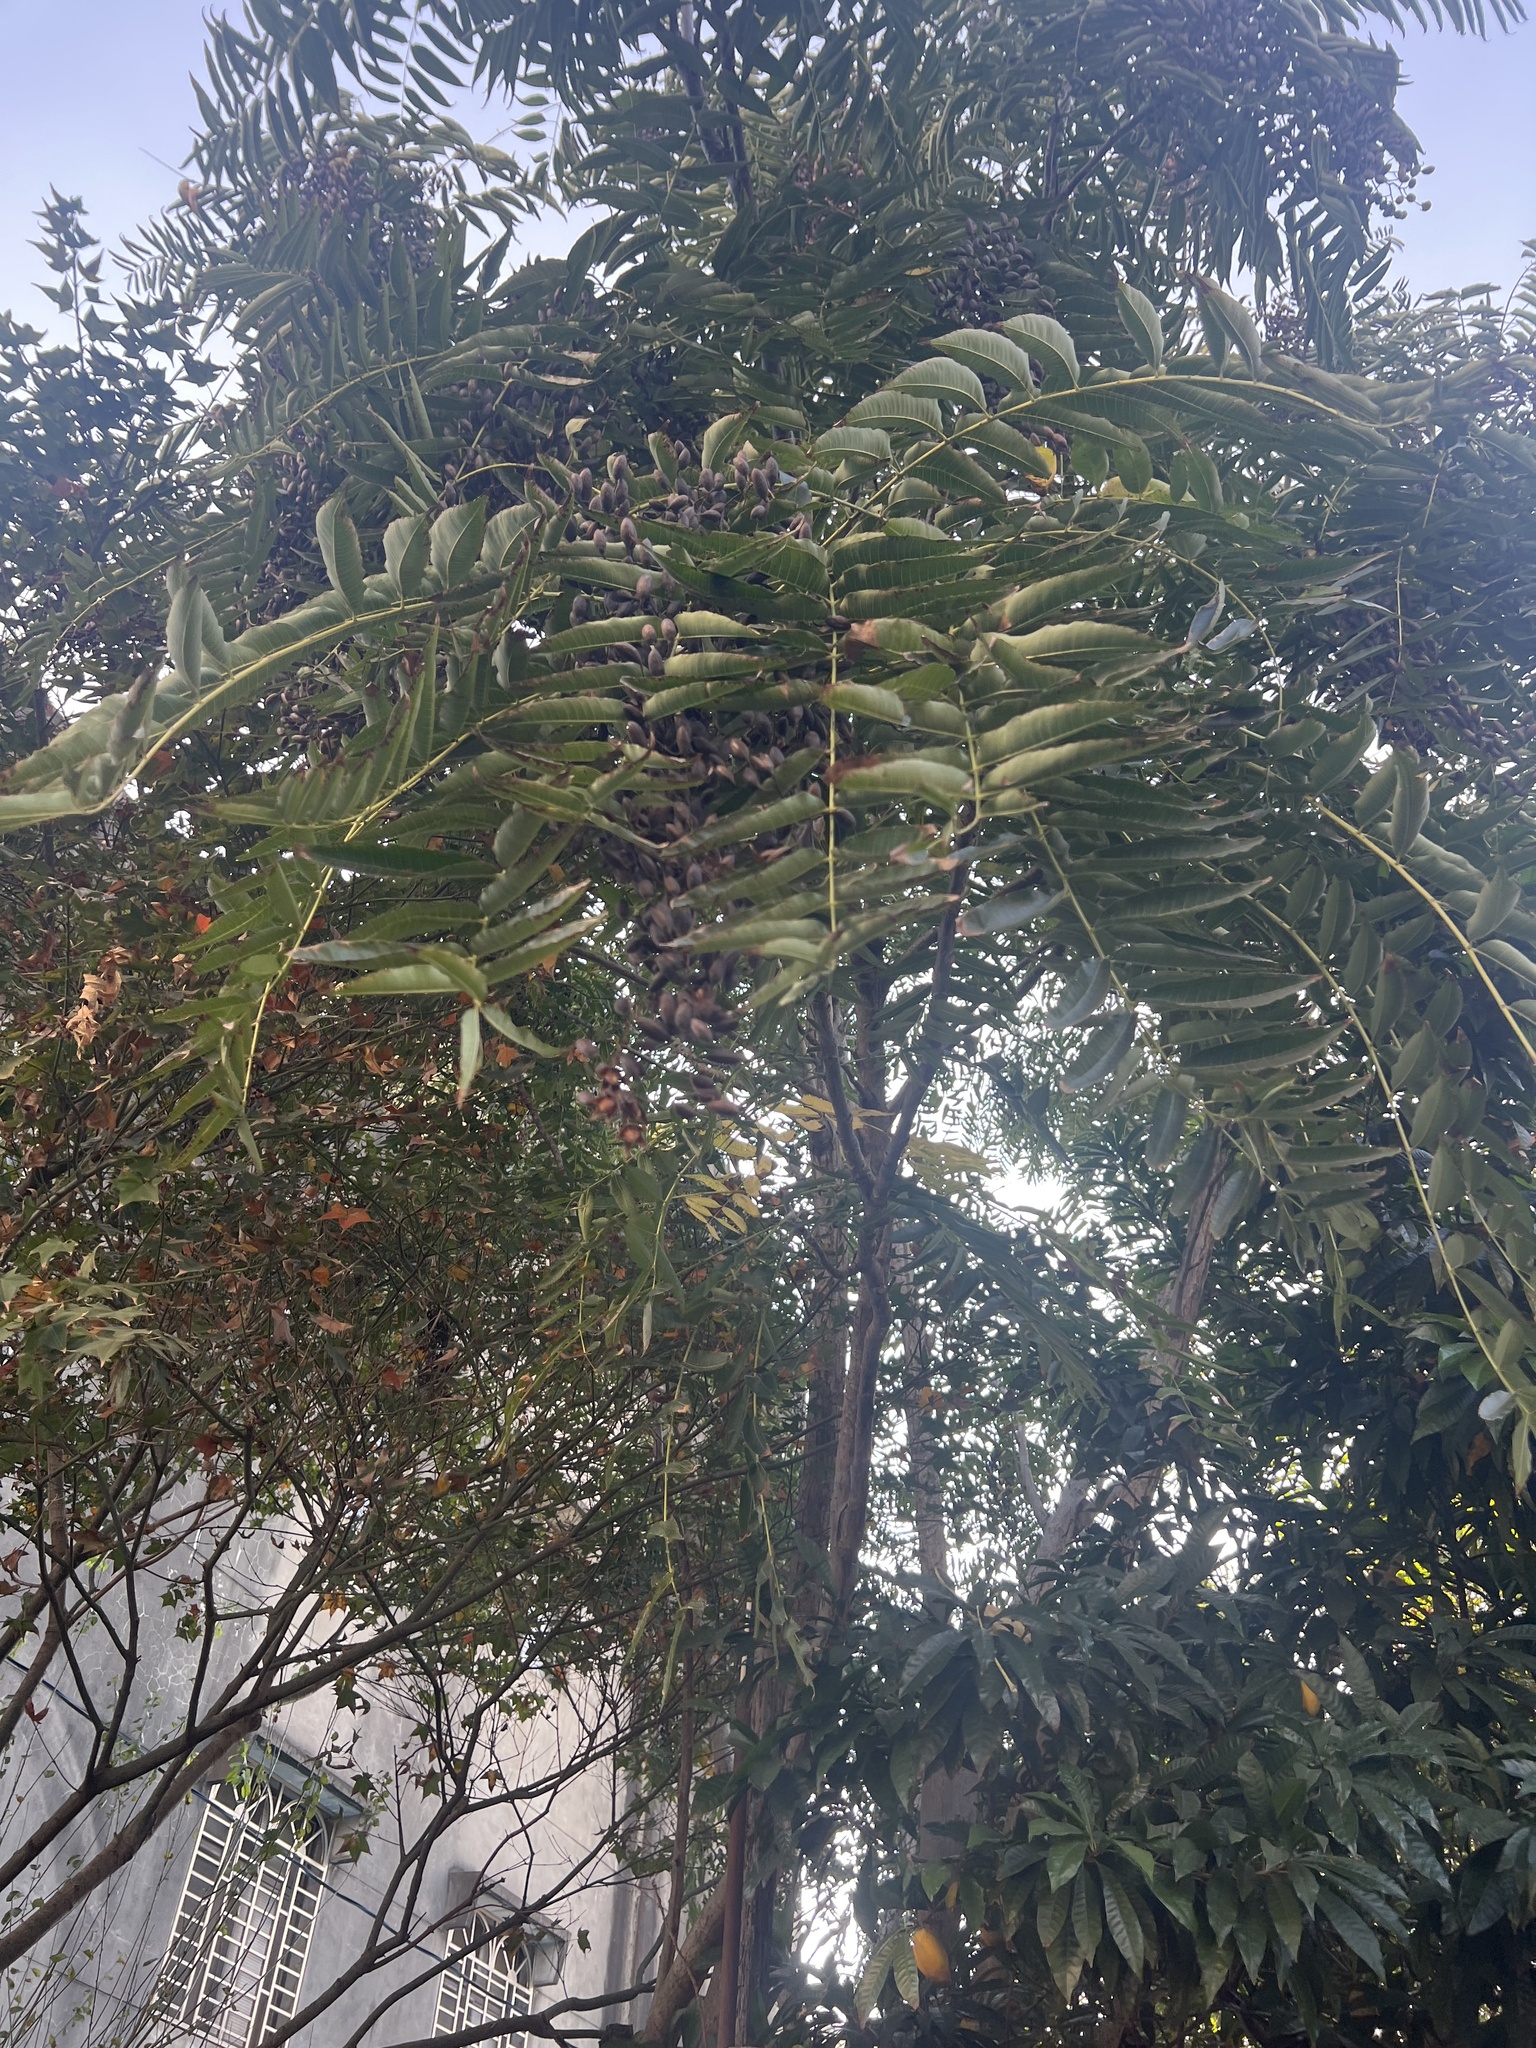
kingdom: Plantae
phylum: Tracheophyta
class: Magnoliopsida
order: Sapindales
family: Meliaceae
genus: Toona
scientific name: Toona sinensis
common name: Red toon
